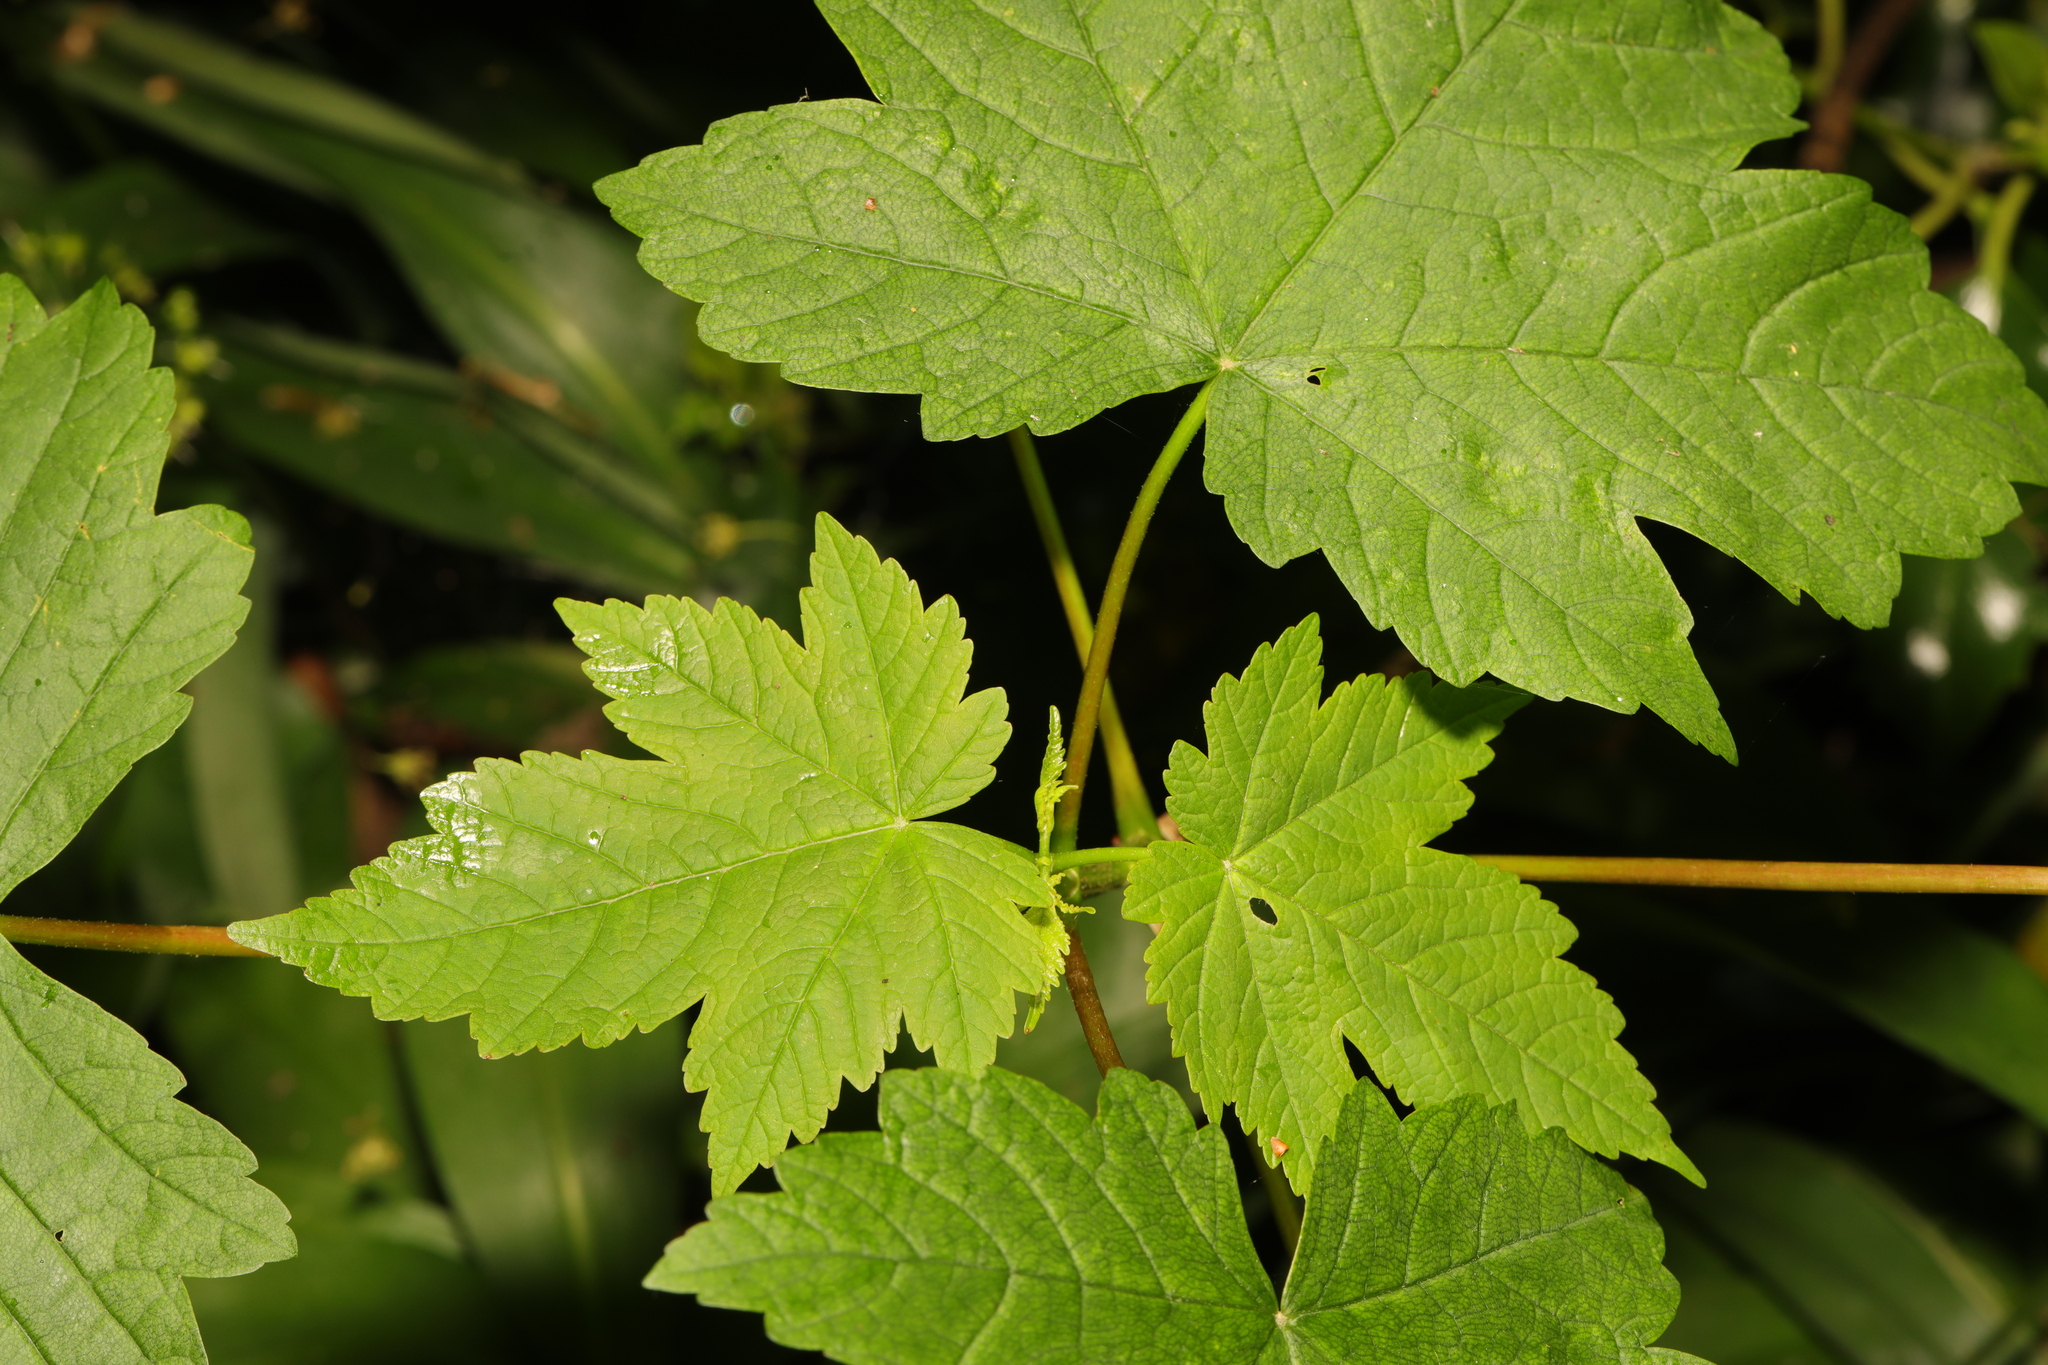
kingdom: Plantae
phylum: Tracheophyta
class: Magnoliopsida
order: Sapindales
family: Sapindaceae
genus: Acer
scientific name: Acer pseudoplatanus
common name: Sycamore
